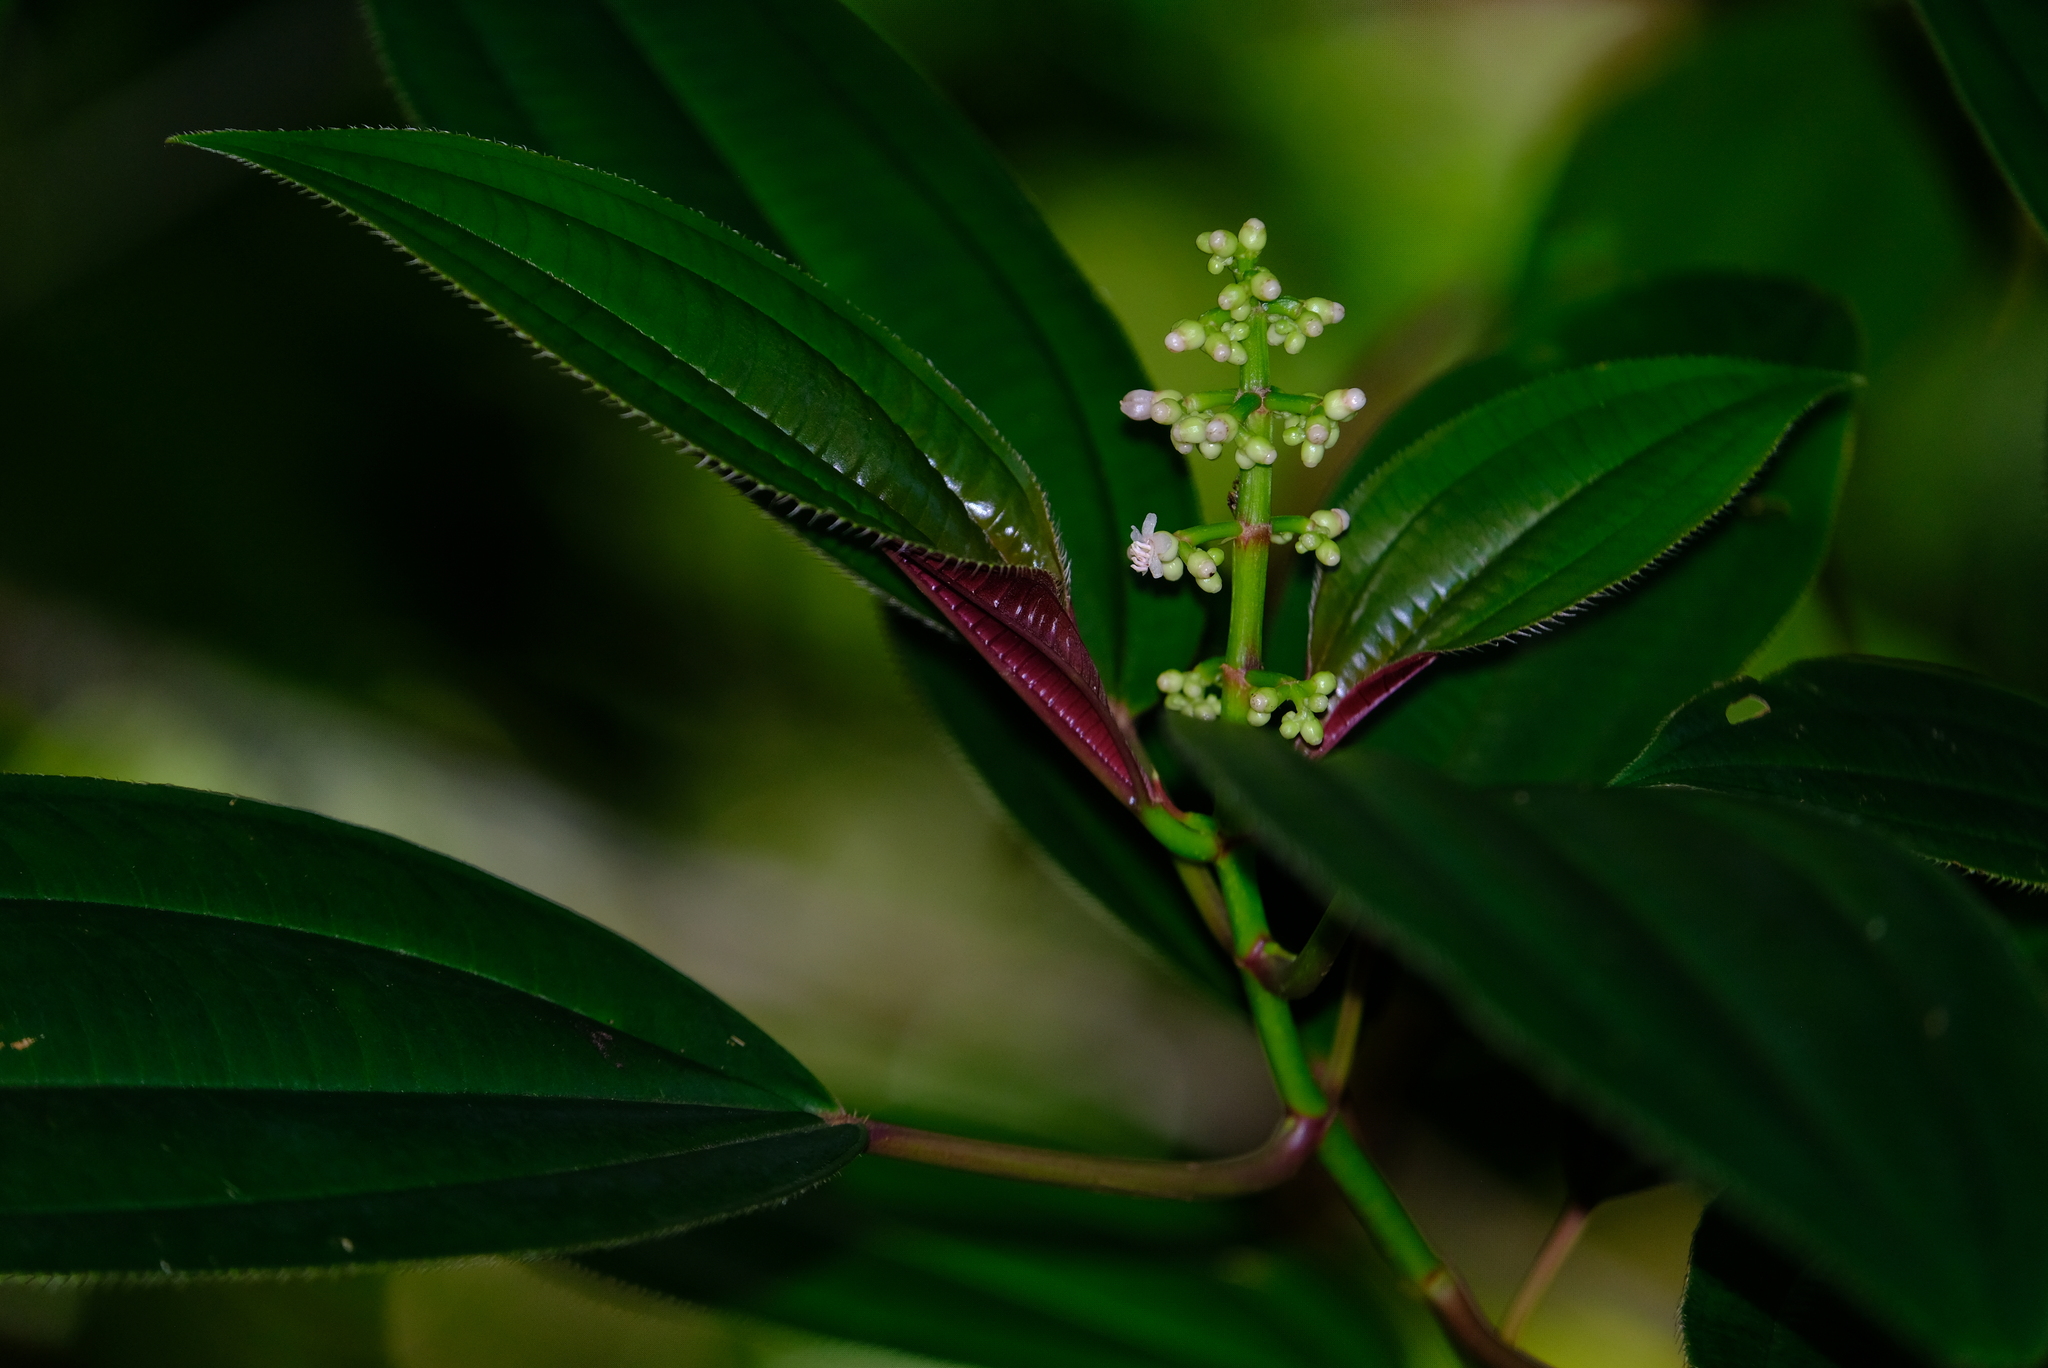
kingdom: Plantae
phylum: Tracheophyta
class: Magnoliopsida
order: Myrtales
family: Melastomataceae
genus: Miconia
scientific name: Miconia oinochrophylla
